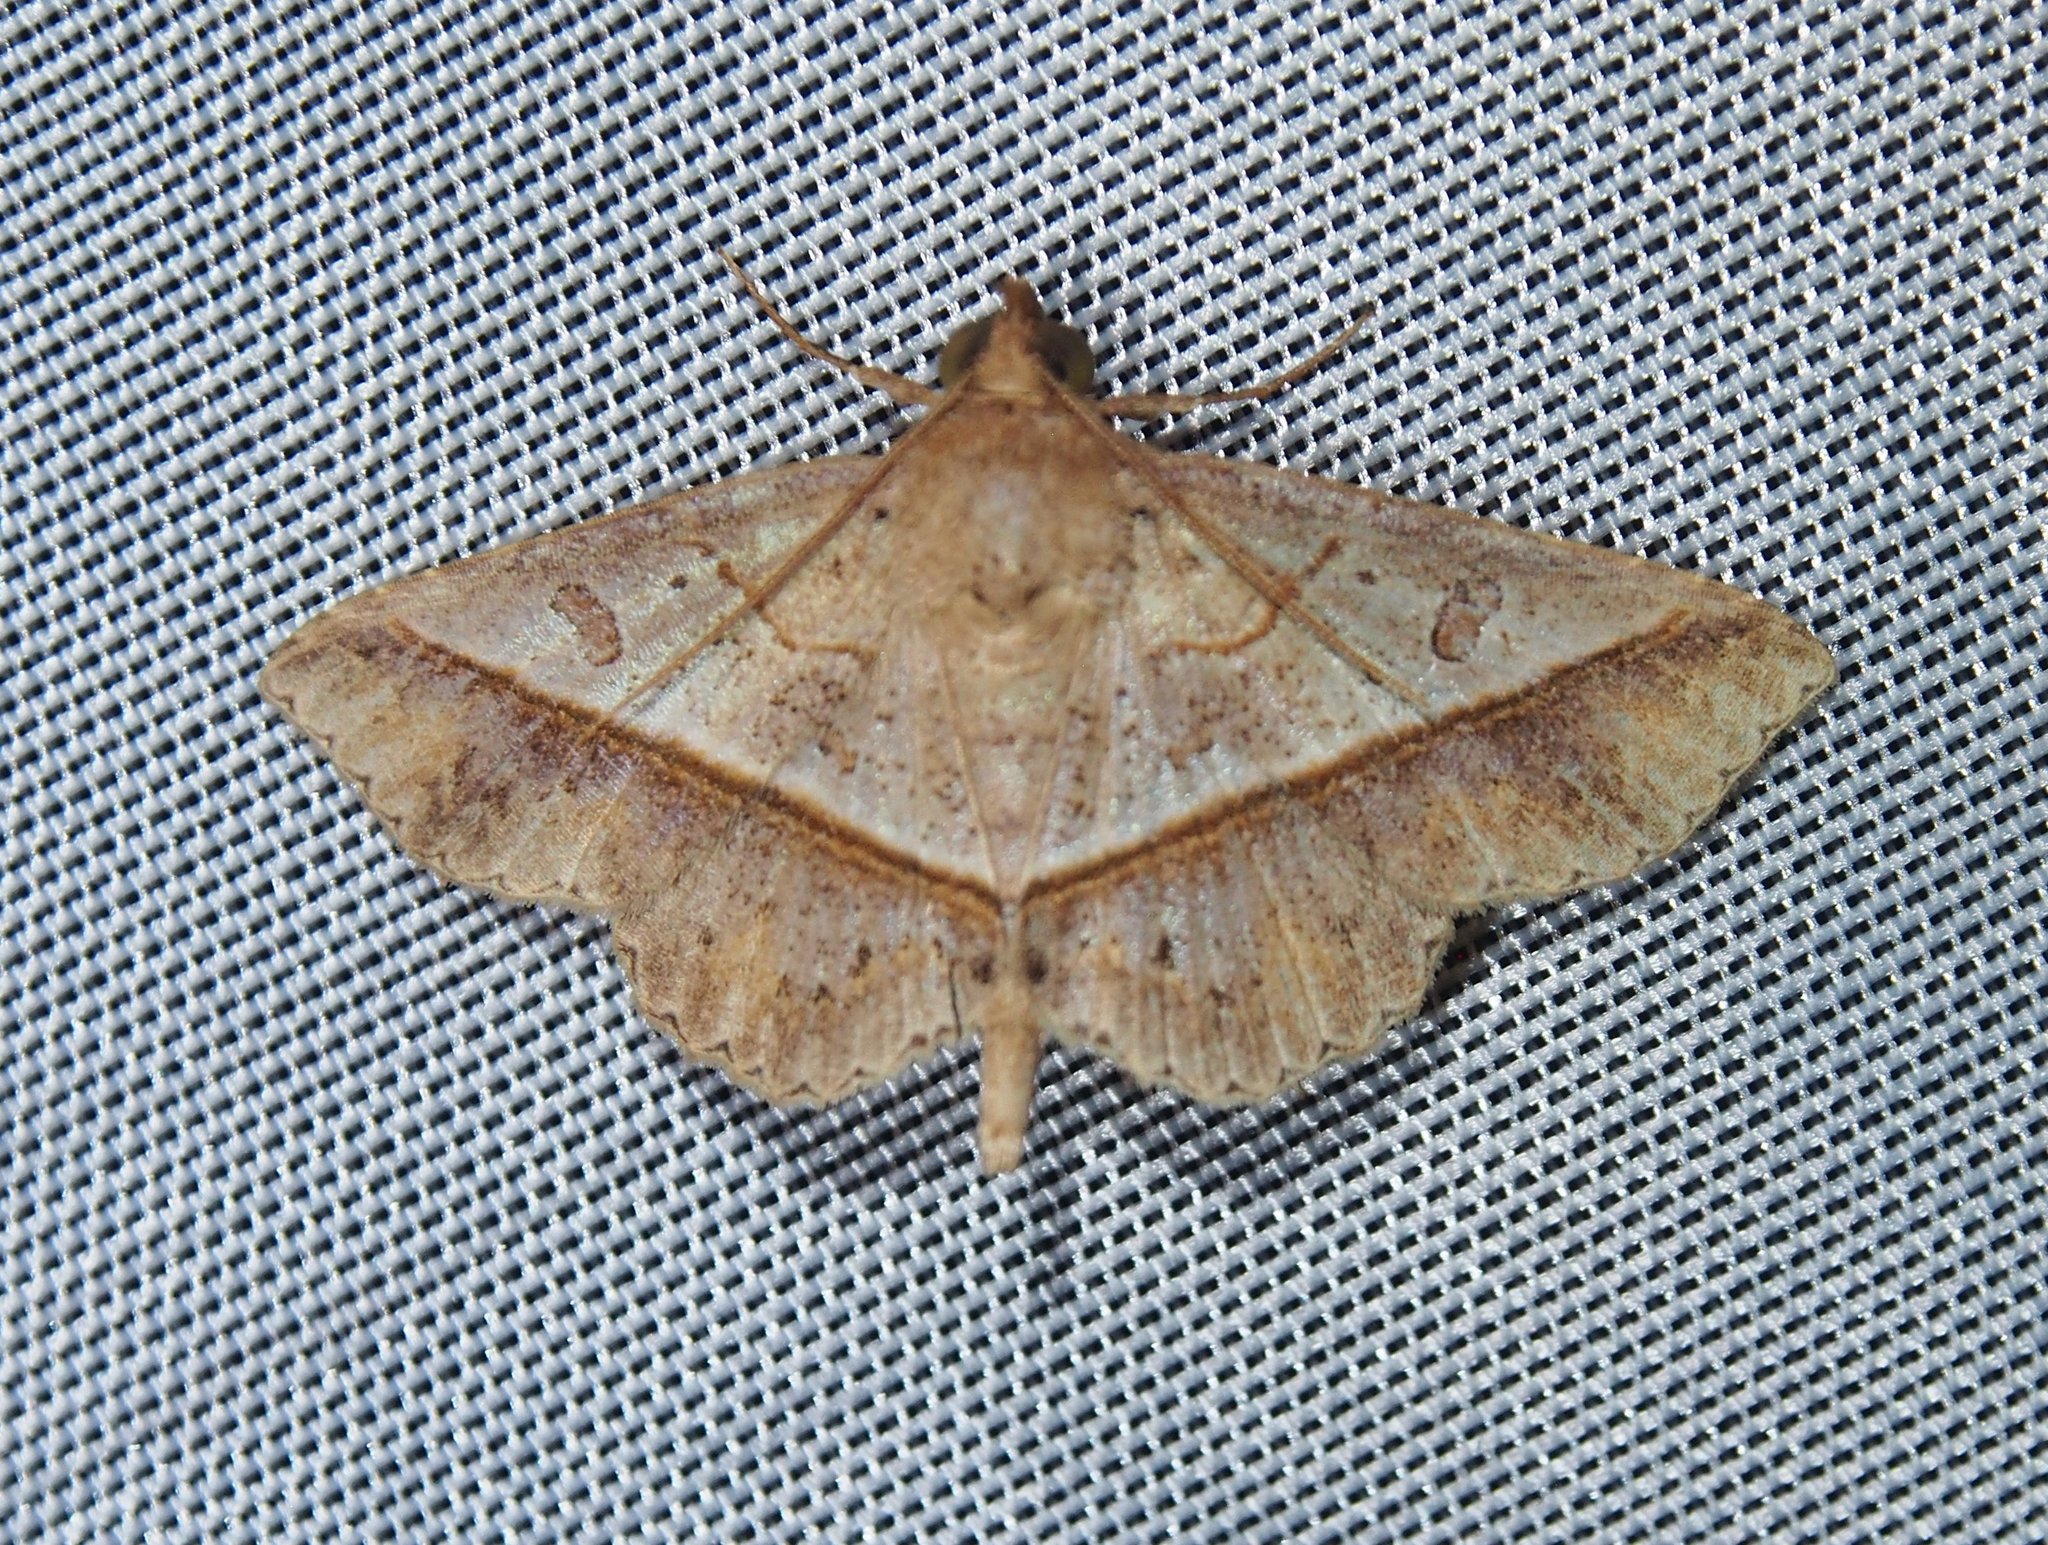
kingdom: Animalia
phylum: Arthropoda
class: Insecta
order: Lepidoptera
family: Erebidae
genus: Antiblemma
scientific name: Antiblemma ceras
